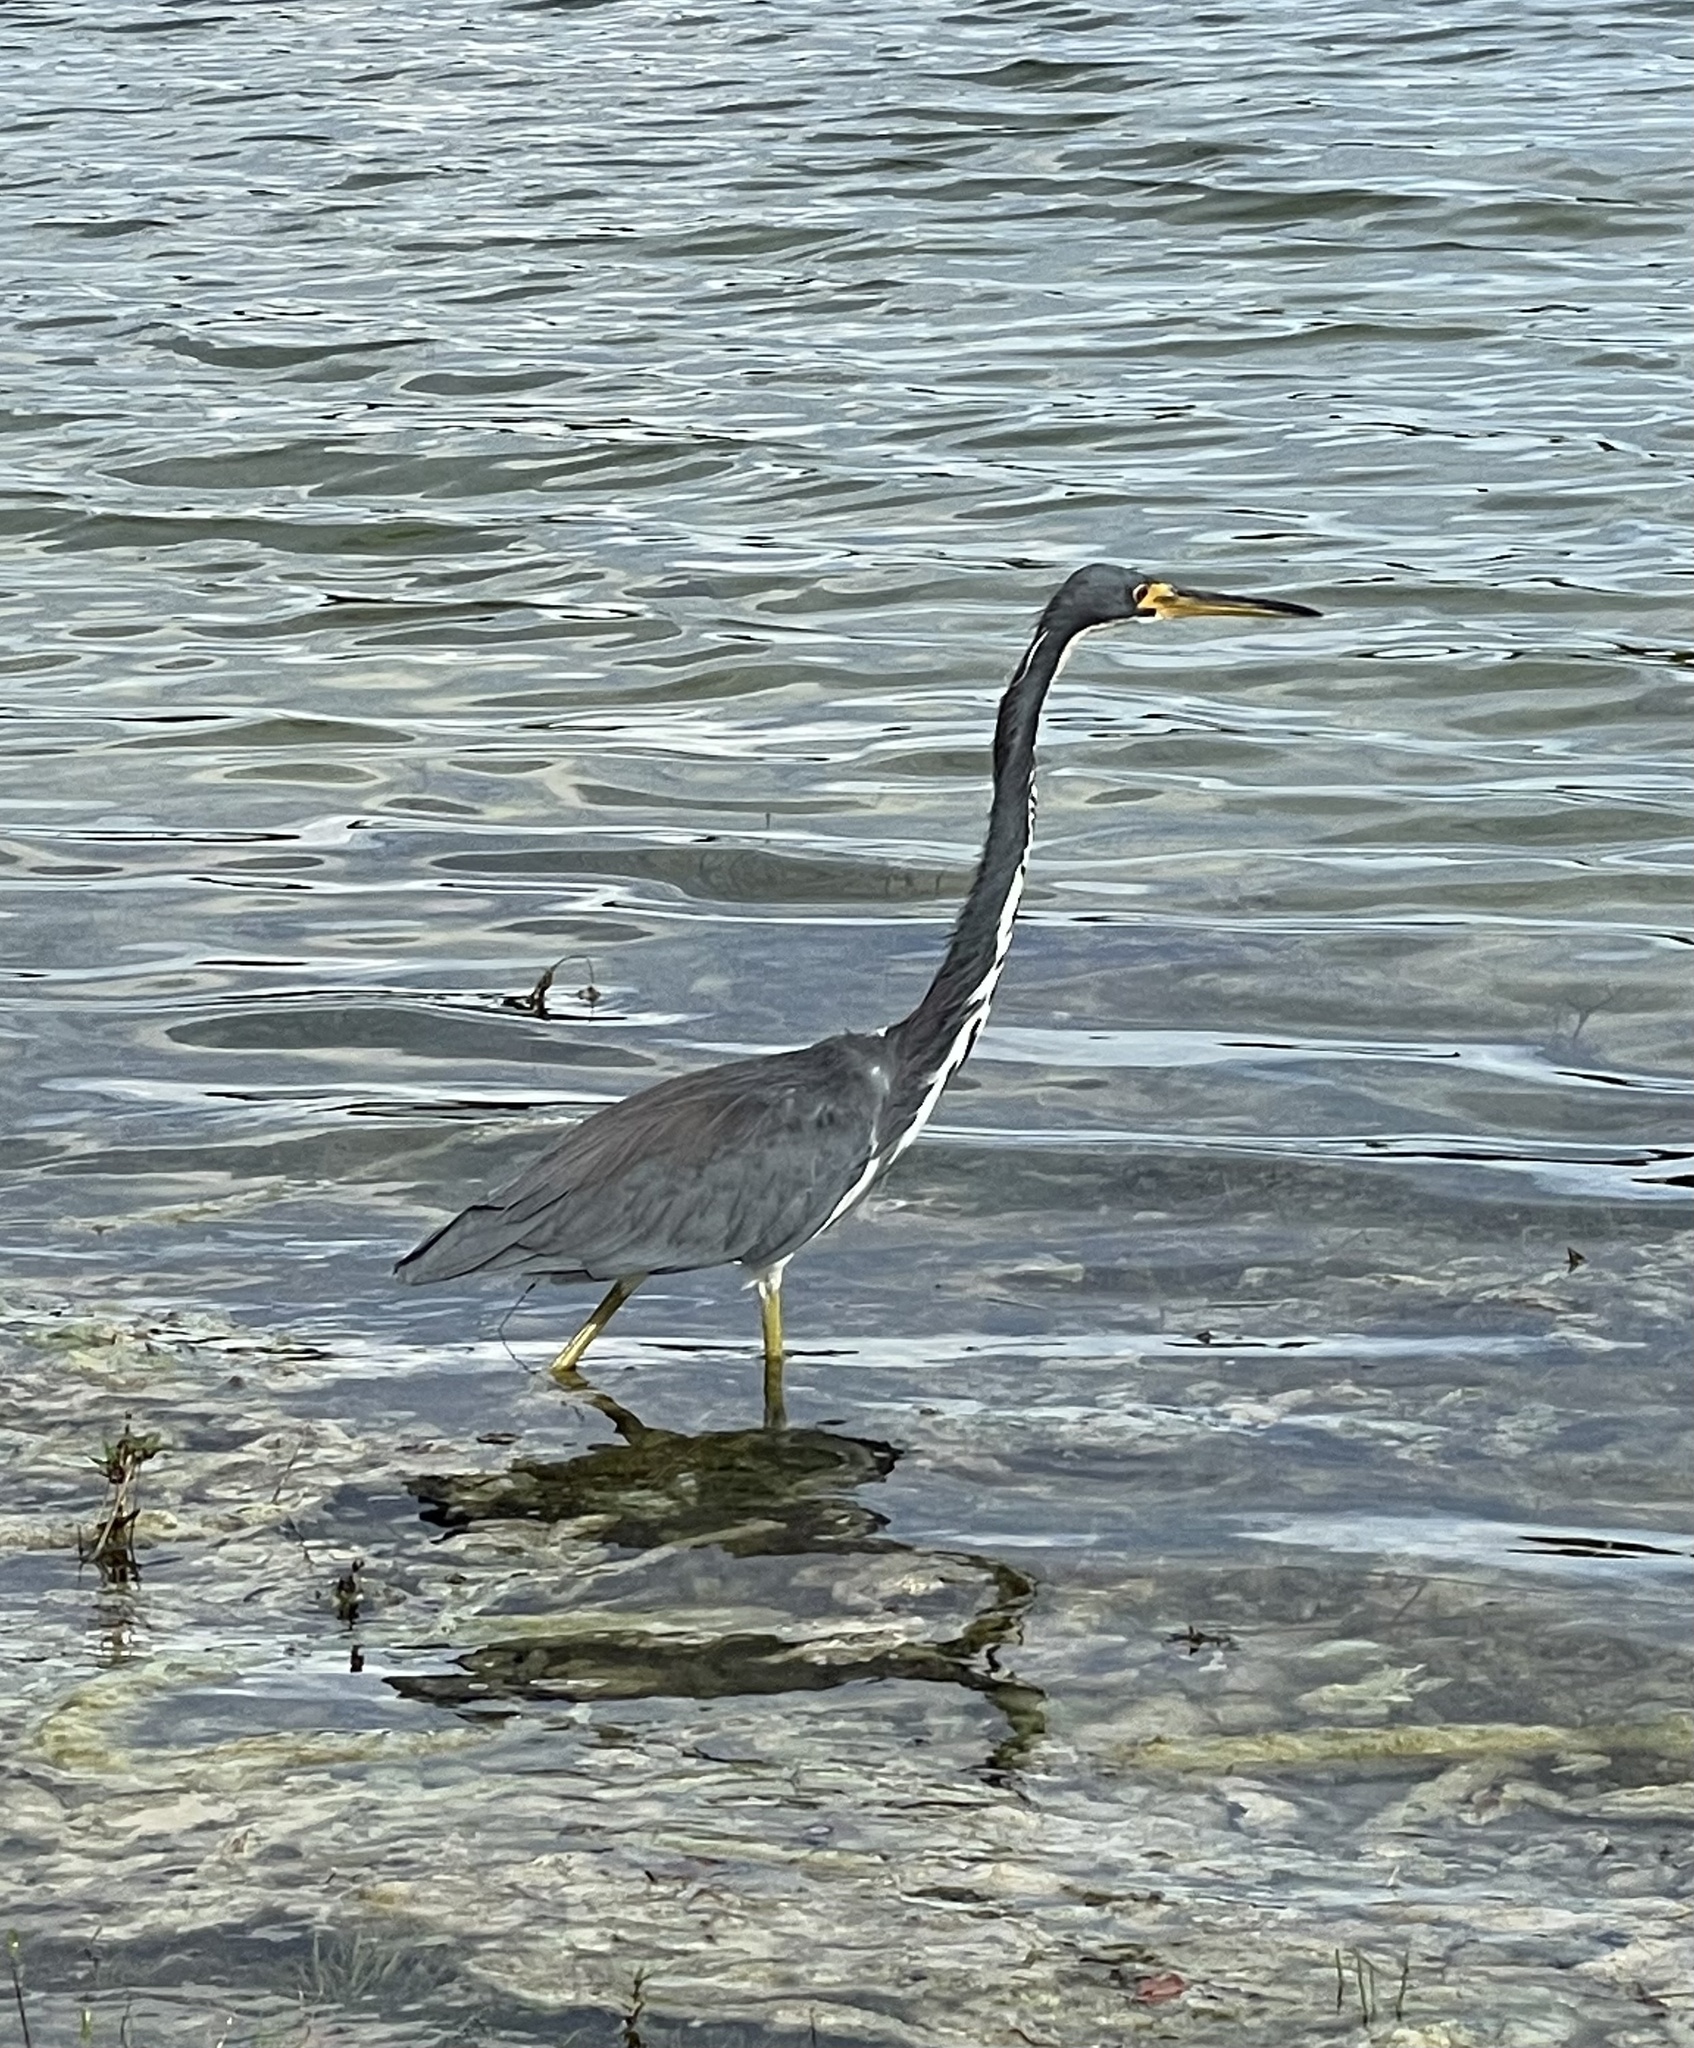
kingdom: Animalia
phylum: Chordata
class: Aves
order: Pelecaniformes
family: Ardeidae
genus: Egretta
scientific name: Egretta tricolor
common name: Tricolored heron
